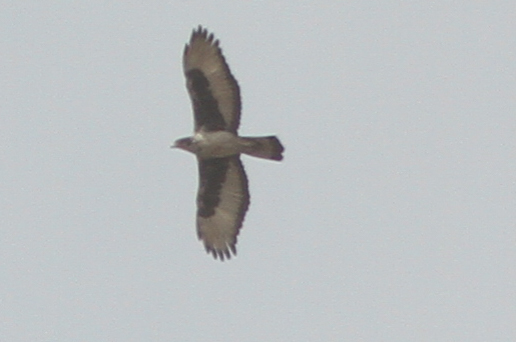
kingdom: Animalia
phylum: Chordata
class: Aves
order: Accipitriformes
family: Accipitridae
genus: Aquila
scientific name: Aquila spilogaster
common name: African hawk-eagle
